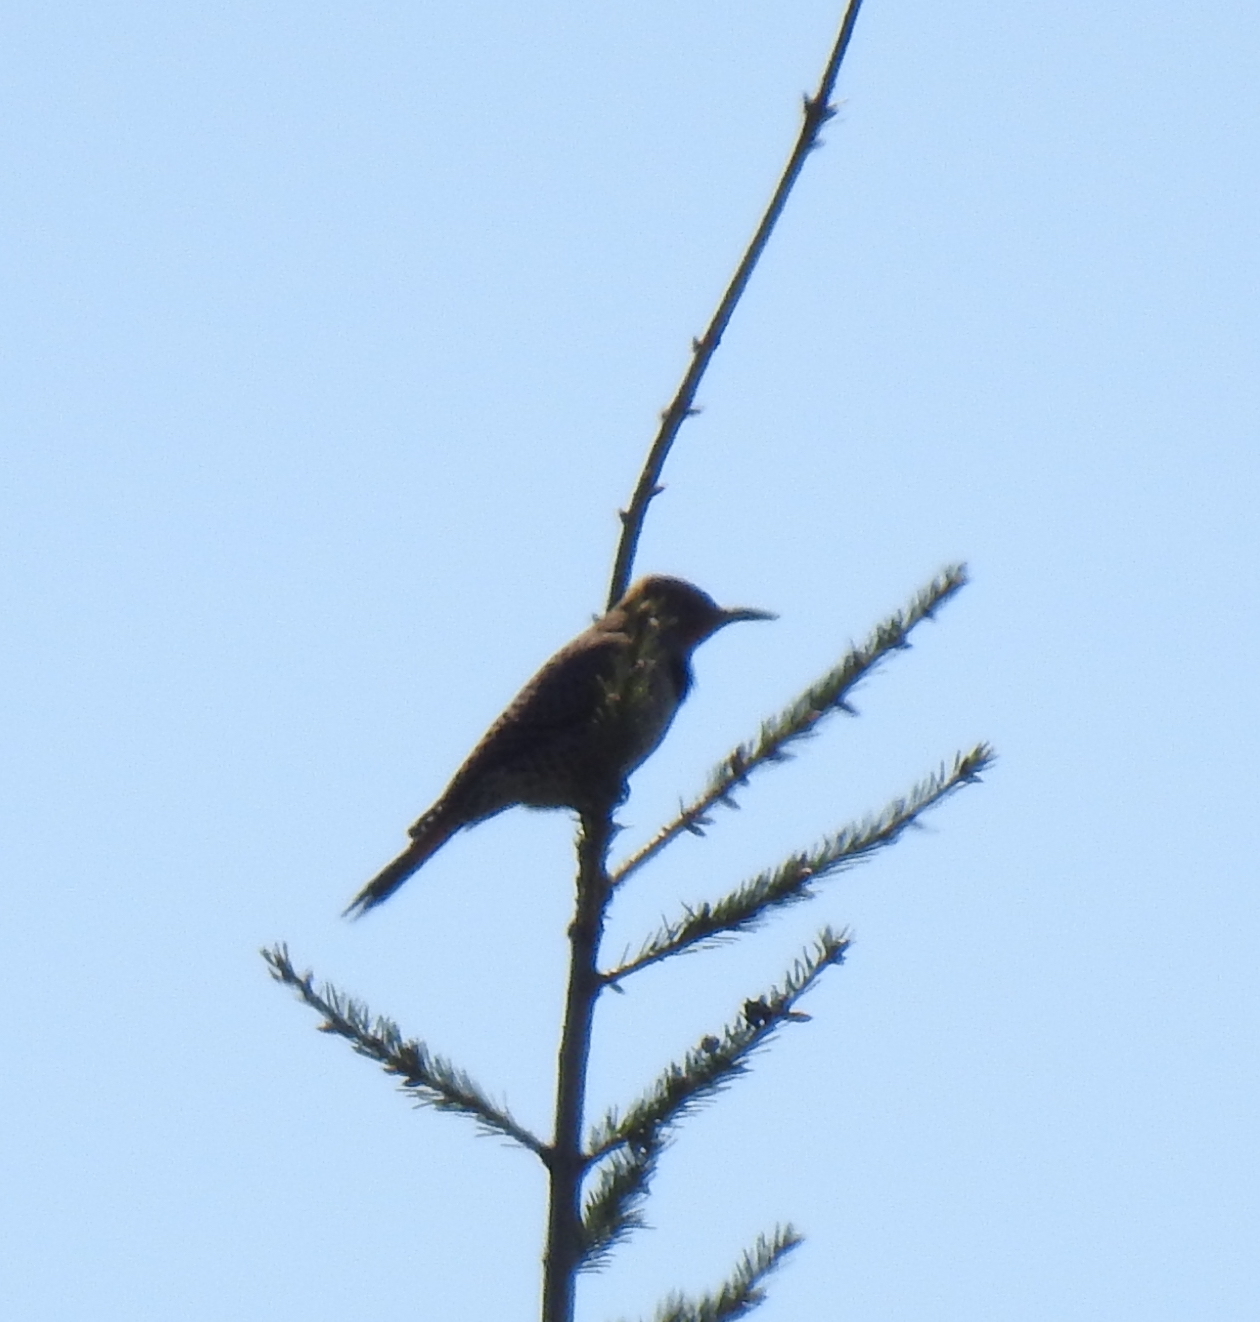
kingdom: Animalia
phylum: Chordata
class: Aves
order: Piciformes
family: Picidae
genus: Colaptes
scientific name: Colaptes auratus
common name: Northern flicker
